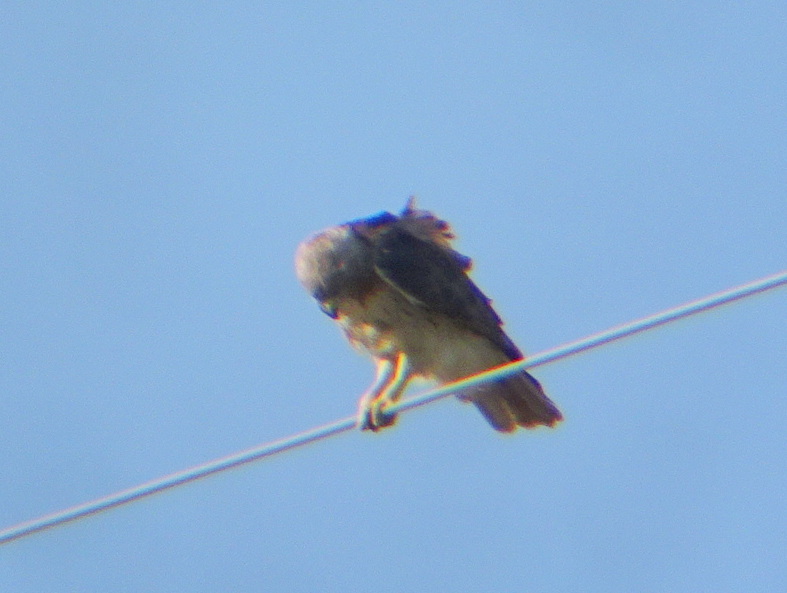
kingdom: Animalia
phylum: Chordata
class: Aves
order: Accipitriformes
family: Accipitridae
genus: Buteo
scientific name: Buteo jamaicensis
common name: Red-tailed hawk
